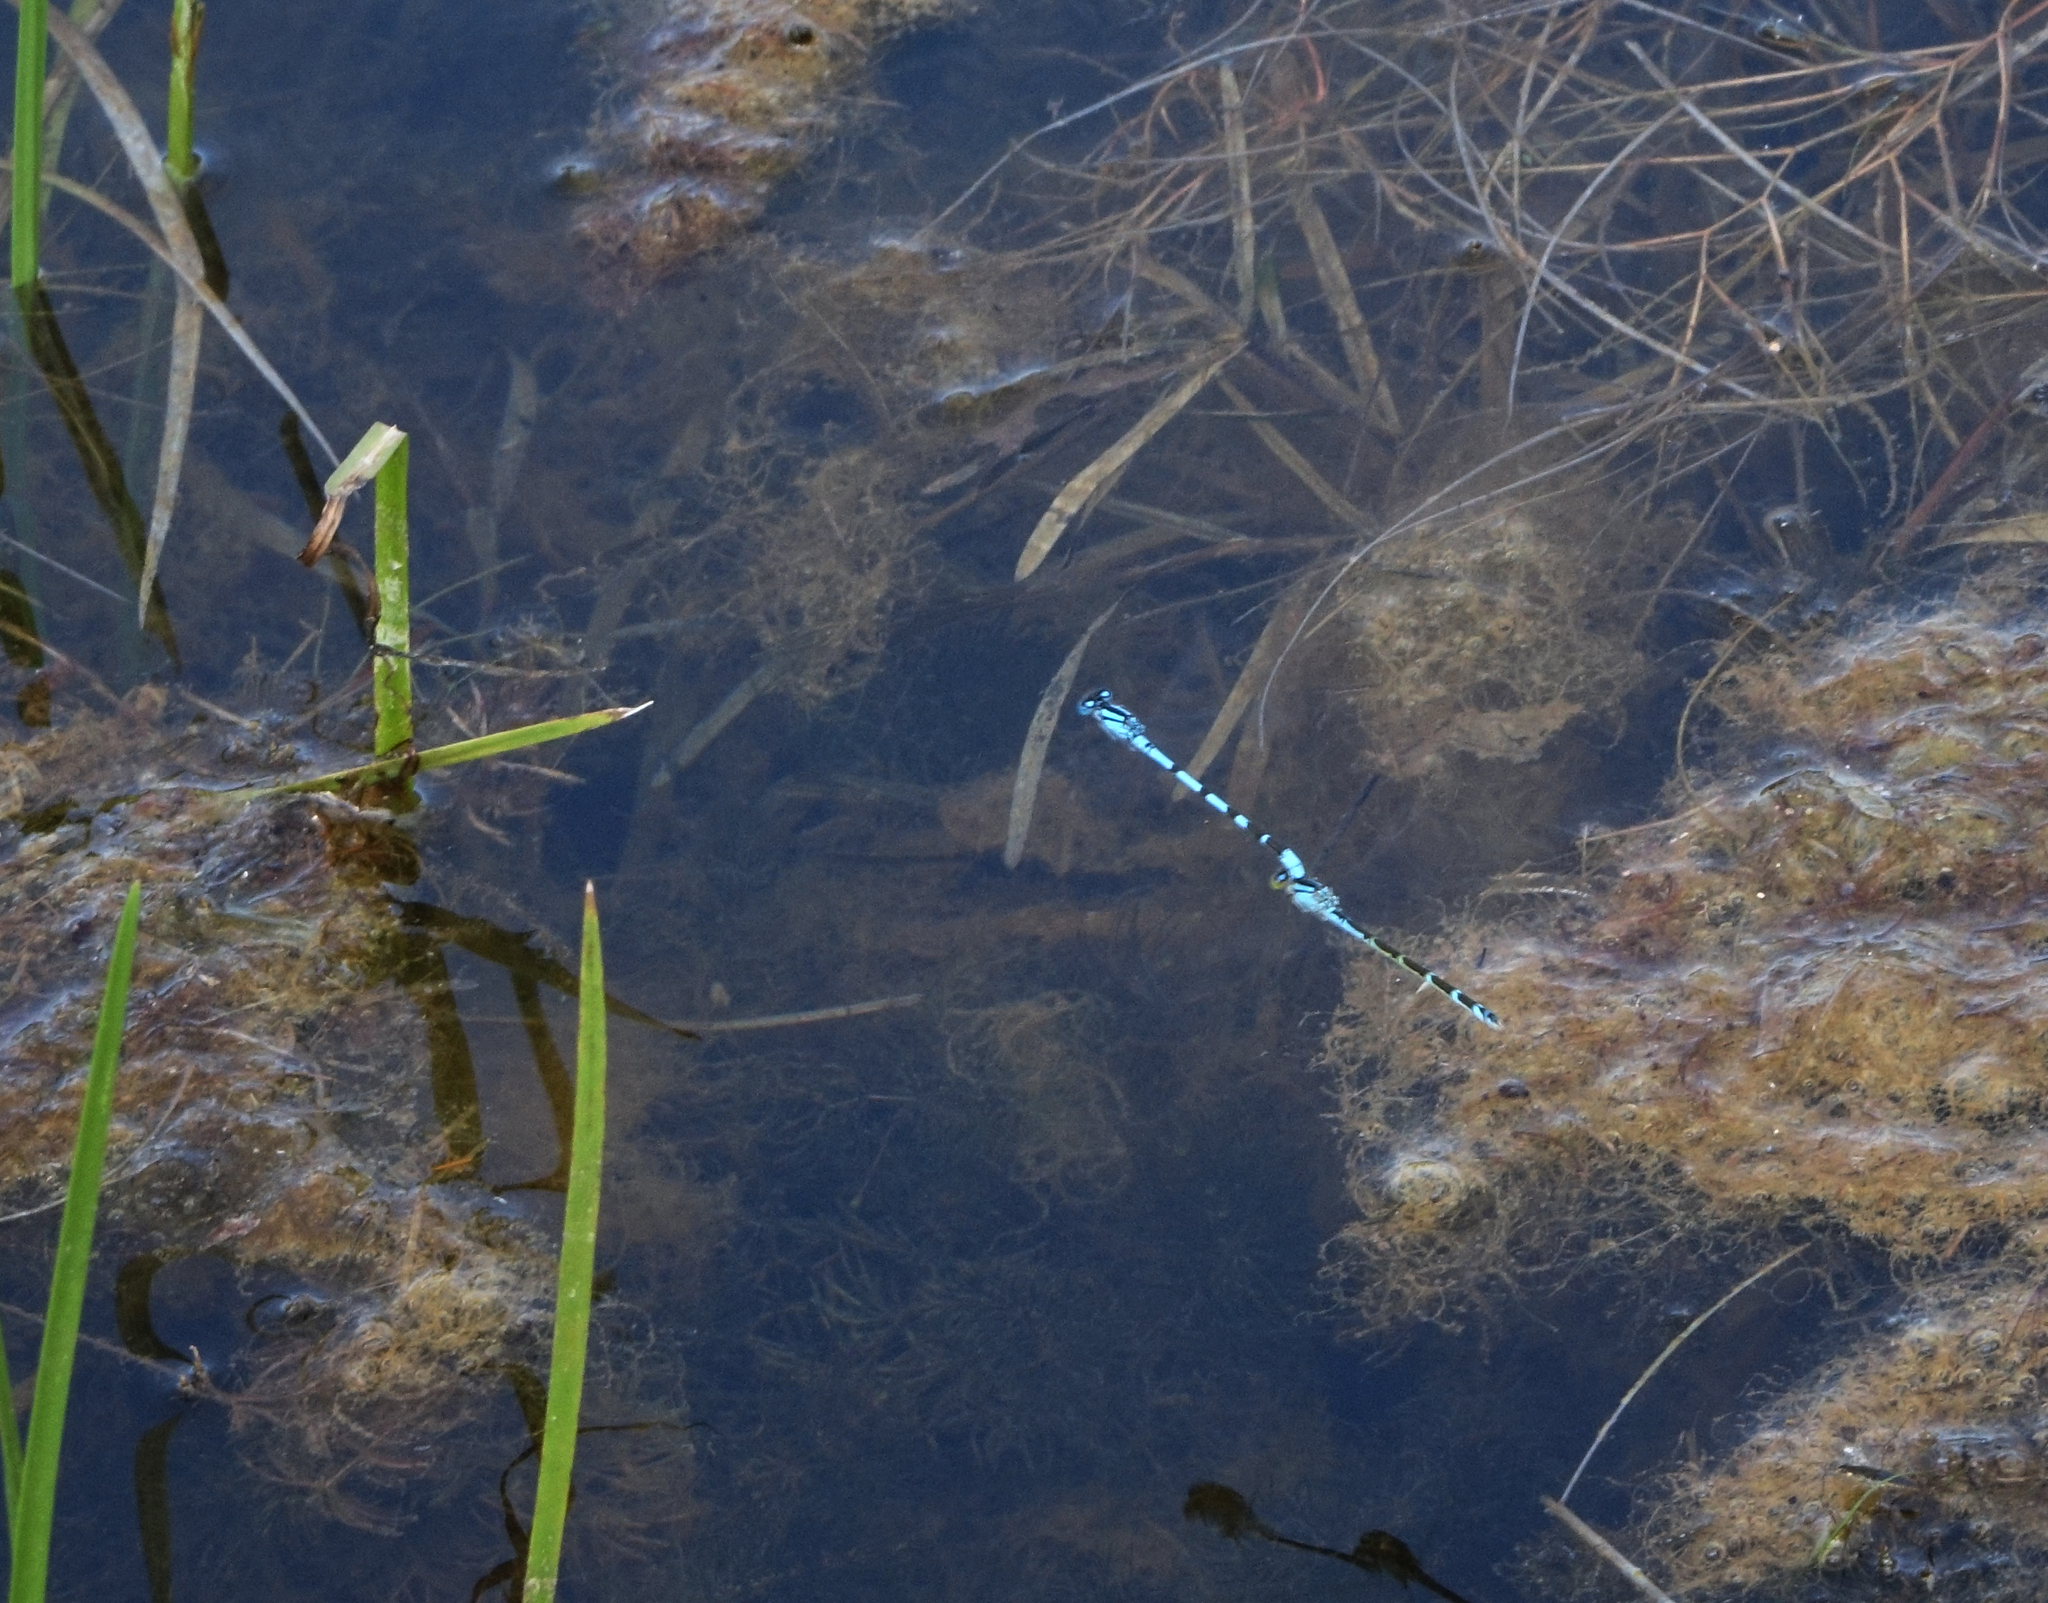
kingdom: Animalia
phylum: Arthropoda
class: Insecta
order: Odonata
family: Coenagrionidae
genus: Enallagma
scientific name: Enallagma cyathigerum
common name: Common blue damselfly
